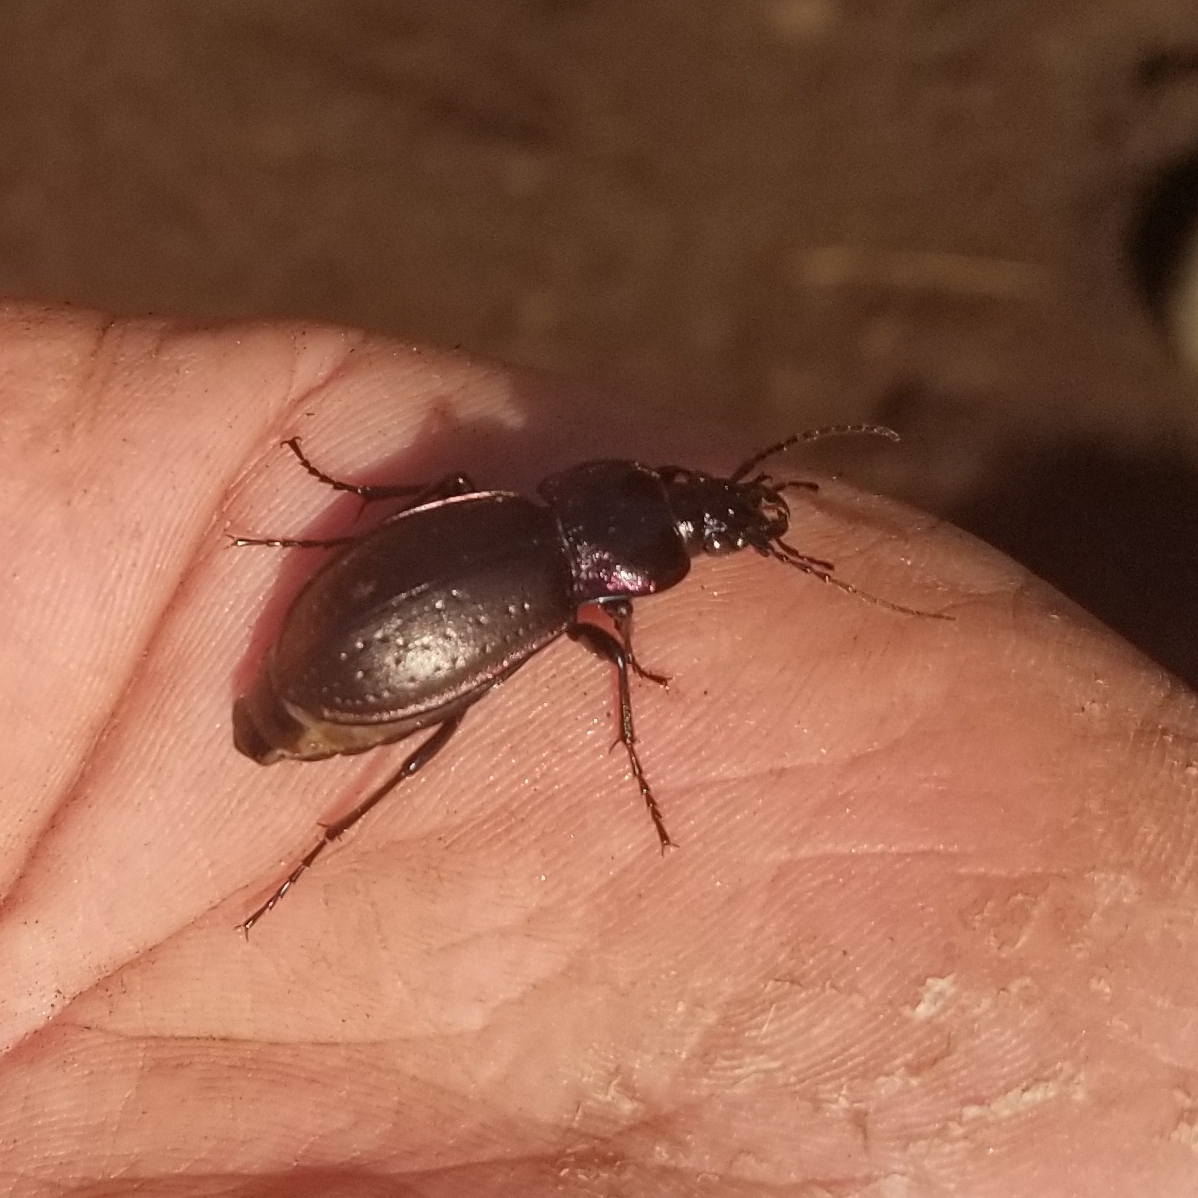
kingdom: Animalia
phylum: Arthropoda
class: Insecta
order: Coleoptera
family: Carabidae
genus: Carabus
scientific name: Carabus nemoralis
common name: European ground beetle
